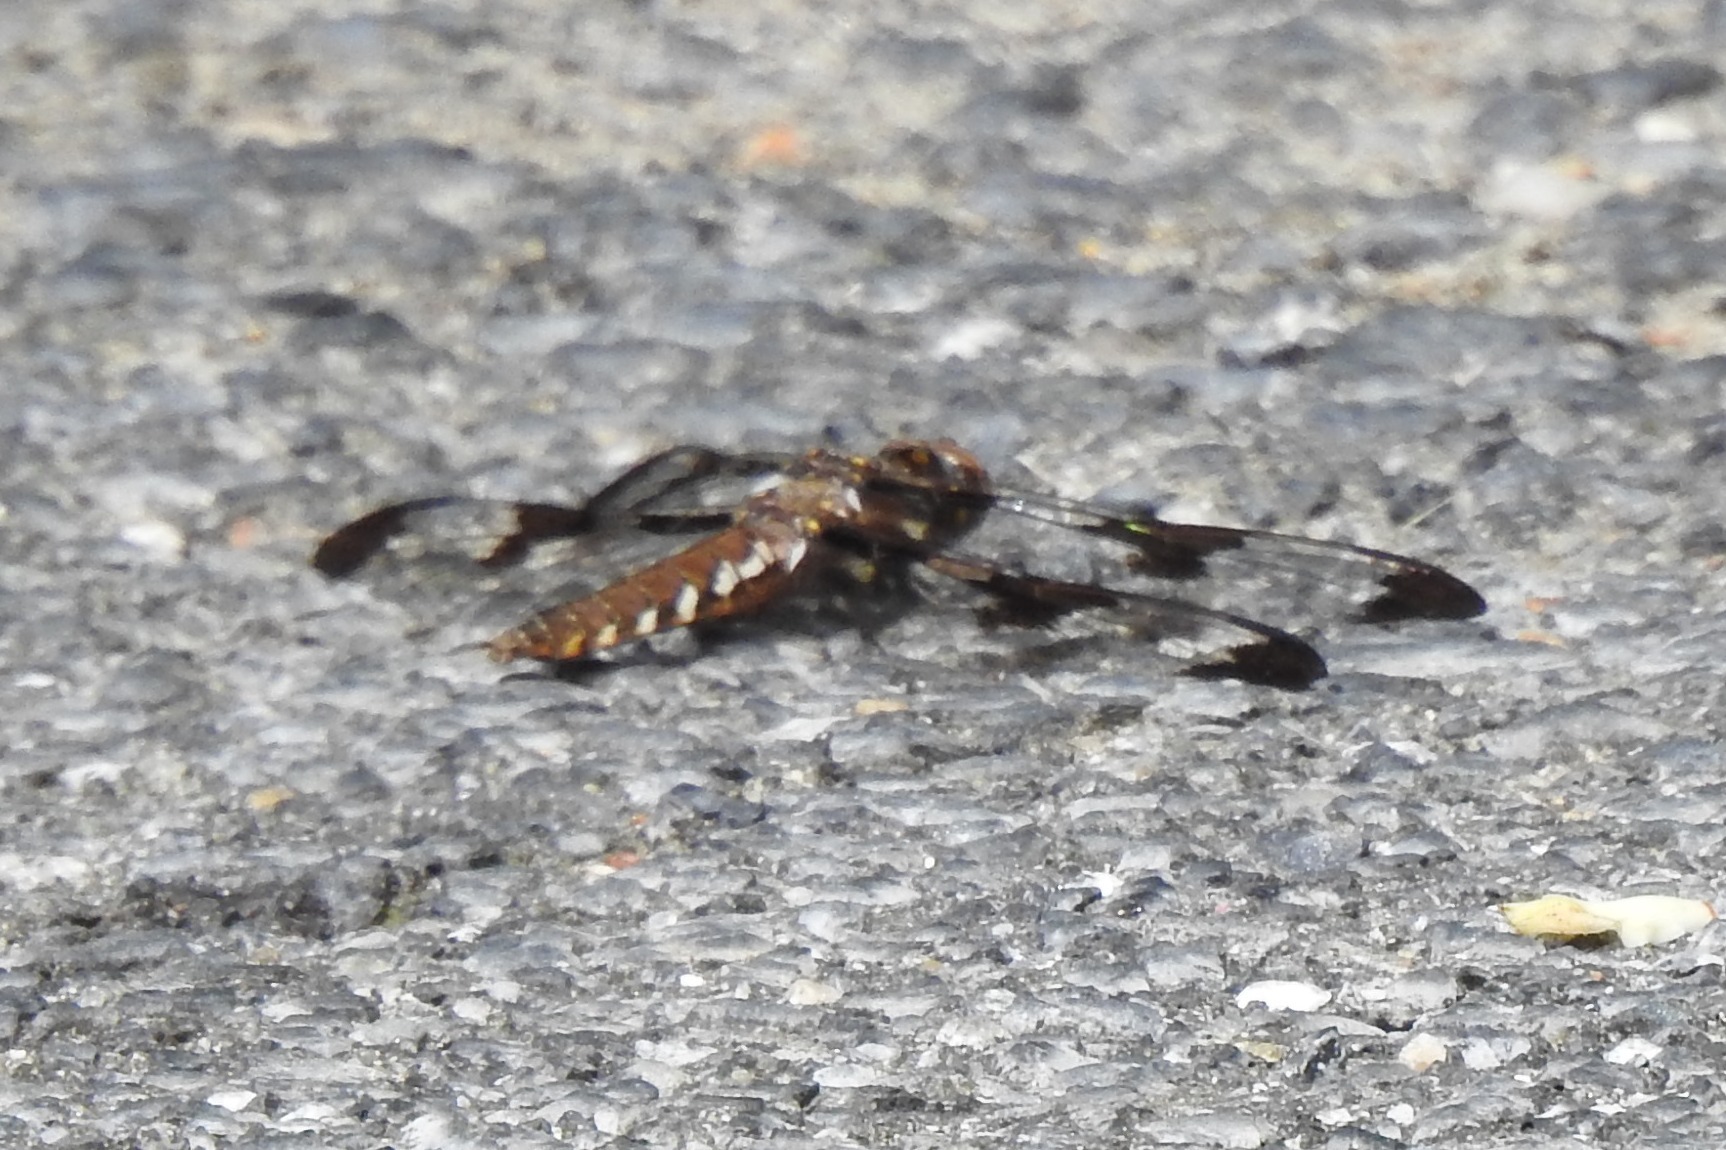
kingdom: Animalia
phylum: Arthropoda
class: Insecta
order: Odonata
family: Libellulidae
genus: Plathemis
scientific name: Plathemis lydia
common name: Common whitetail
